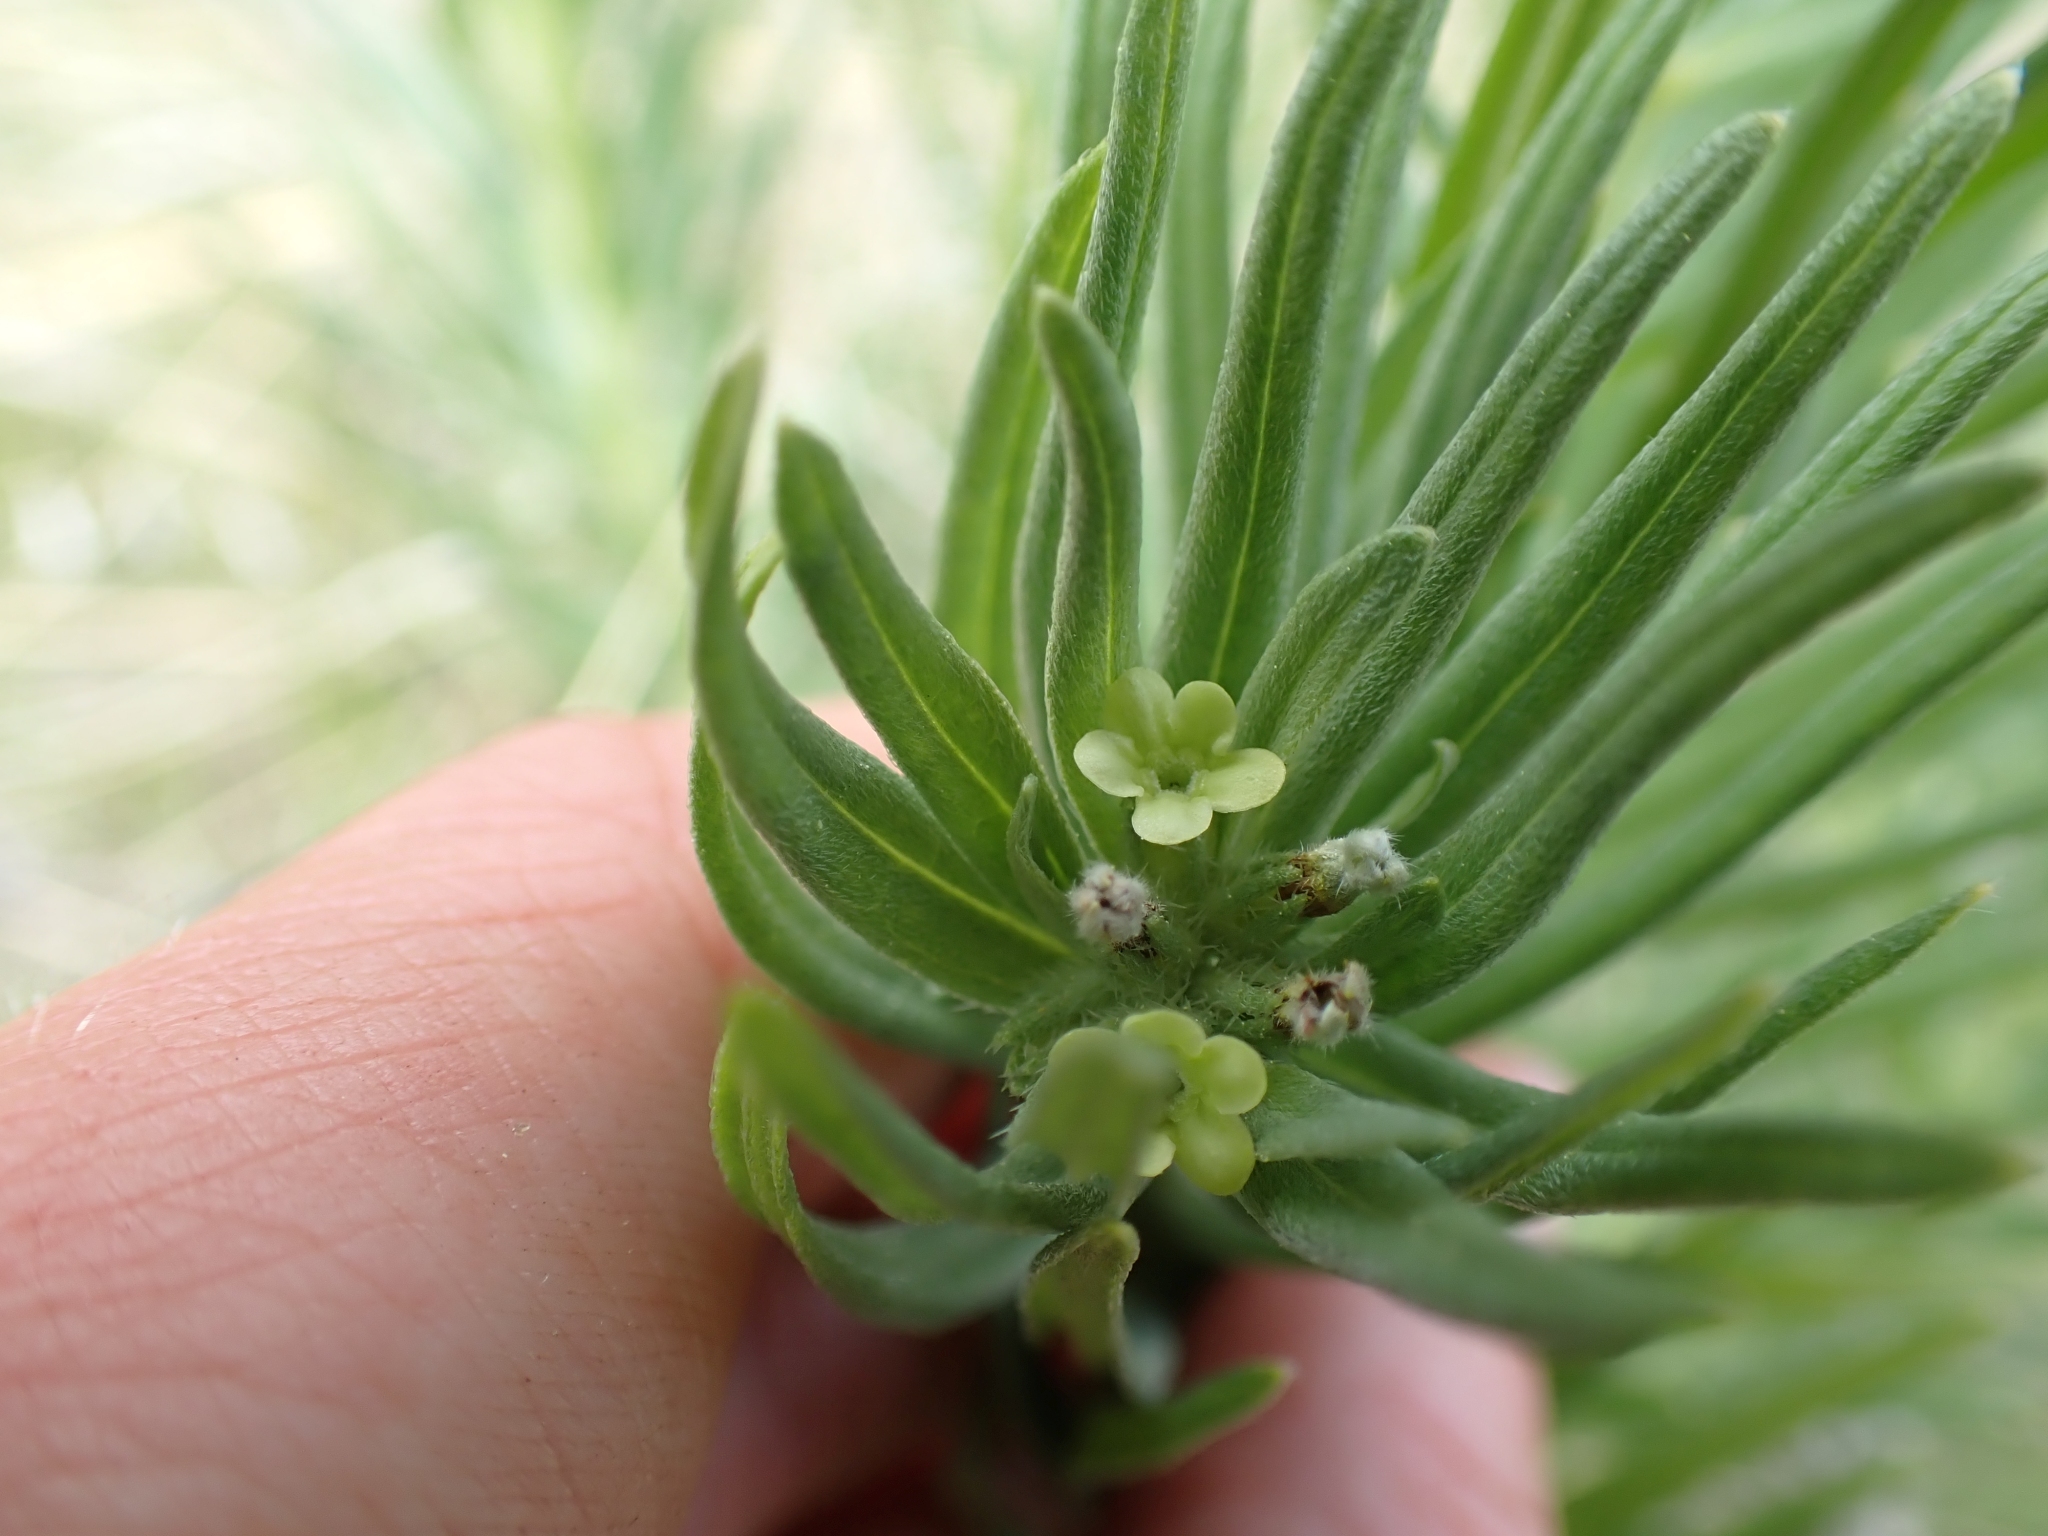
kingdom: Plantae
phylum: Tracheophyta
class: Magnoliopsida
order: Boraginales
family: Boraginaceae
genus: Lithospermum
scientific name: Lithospermum ruderale
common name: Western gromwell
